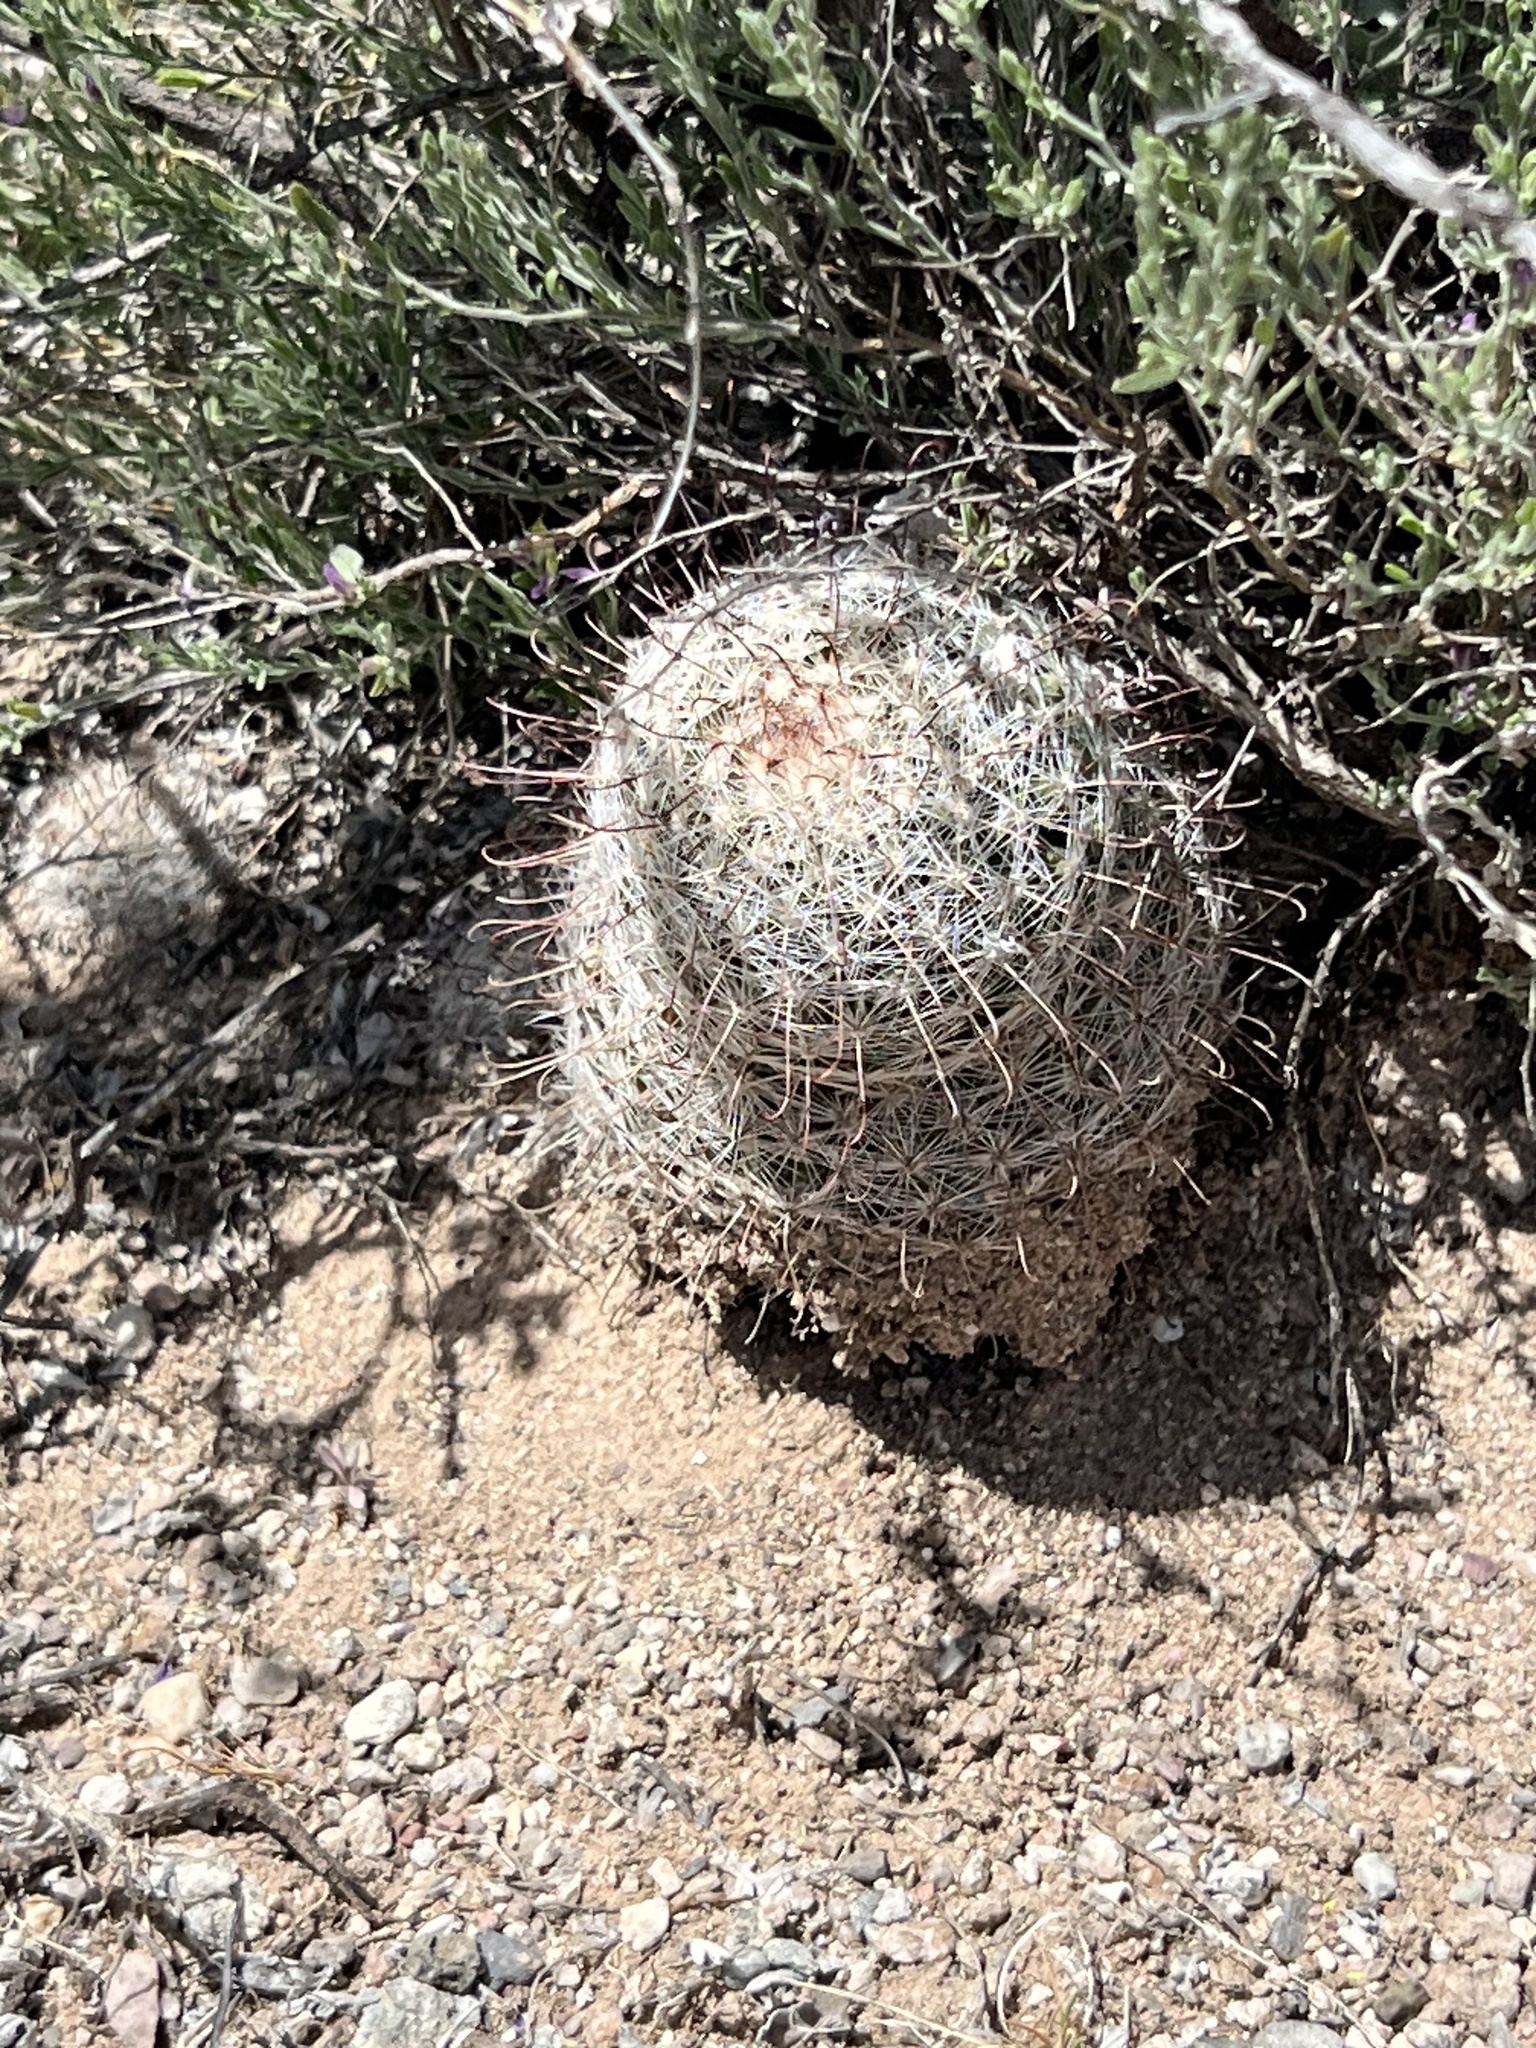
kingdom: Plantae
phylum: Tracheophyta
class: Magnoliopsida
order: Caryophyllales
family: Cactaceae
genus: Cochemiea
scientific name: Cochemiea grahamii
